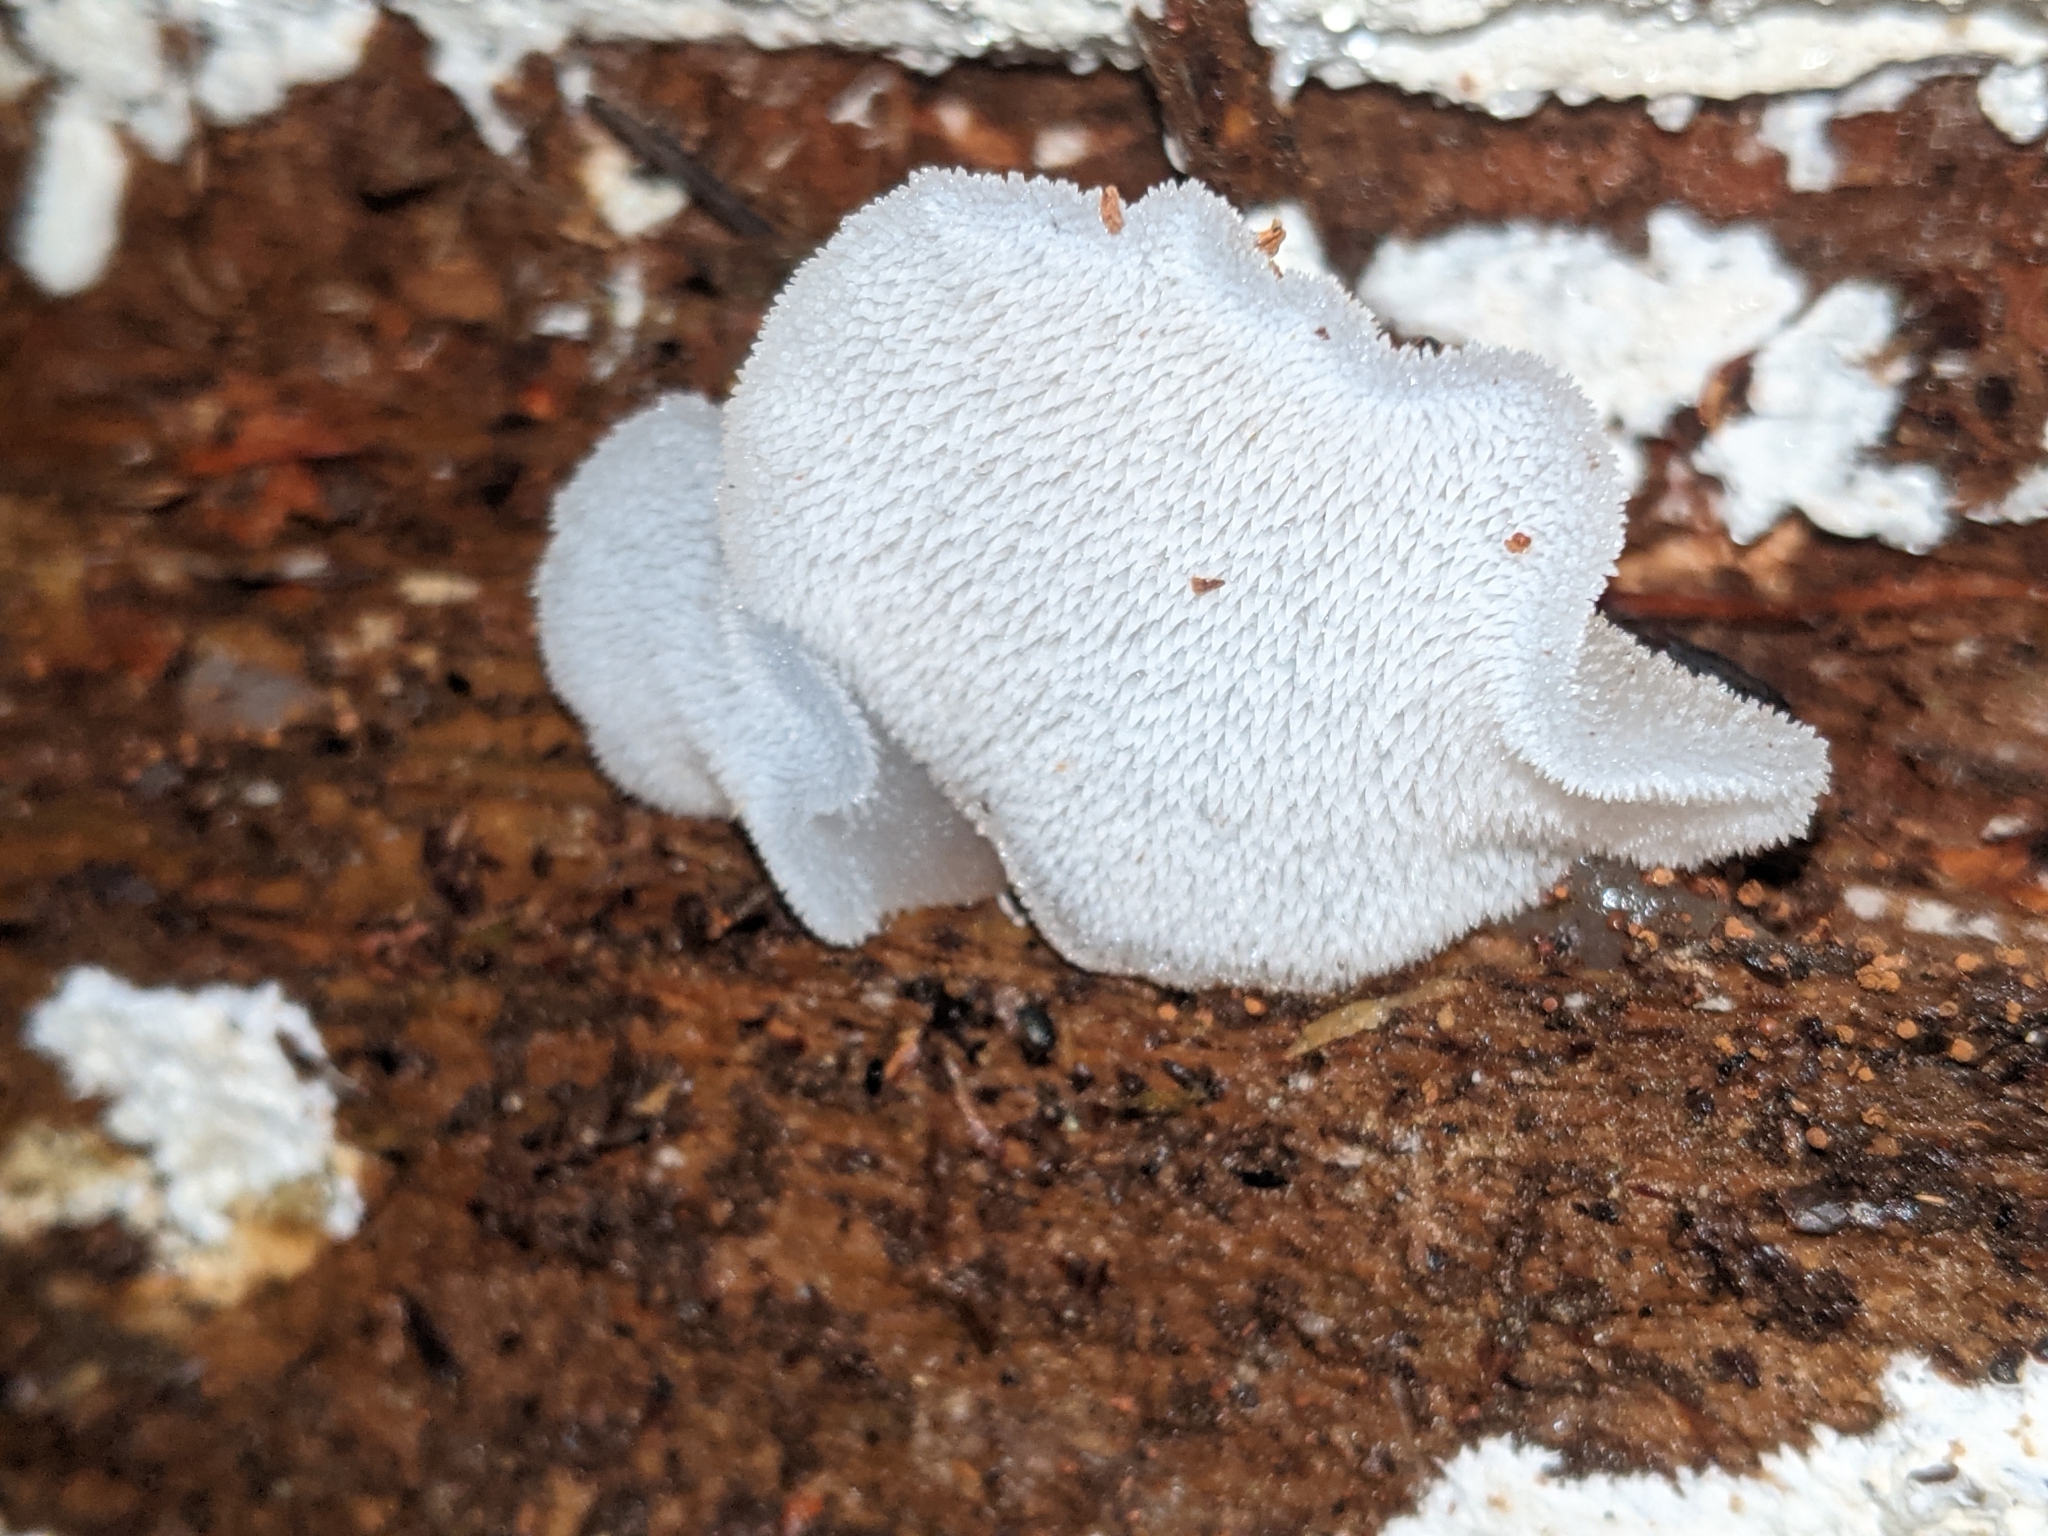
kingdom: Fungi
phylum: Basidiomycota
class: Agaricomycetes
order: Auriculariales
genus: Pseudohydnum
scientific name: Pseudohydnum gelatinosum
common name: Jelly tongue
